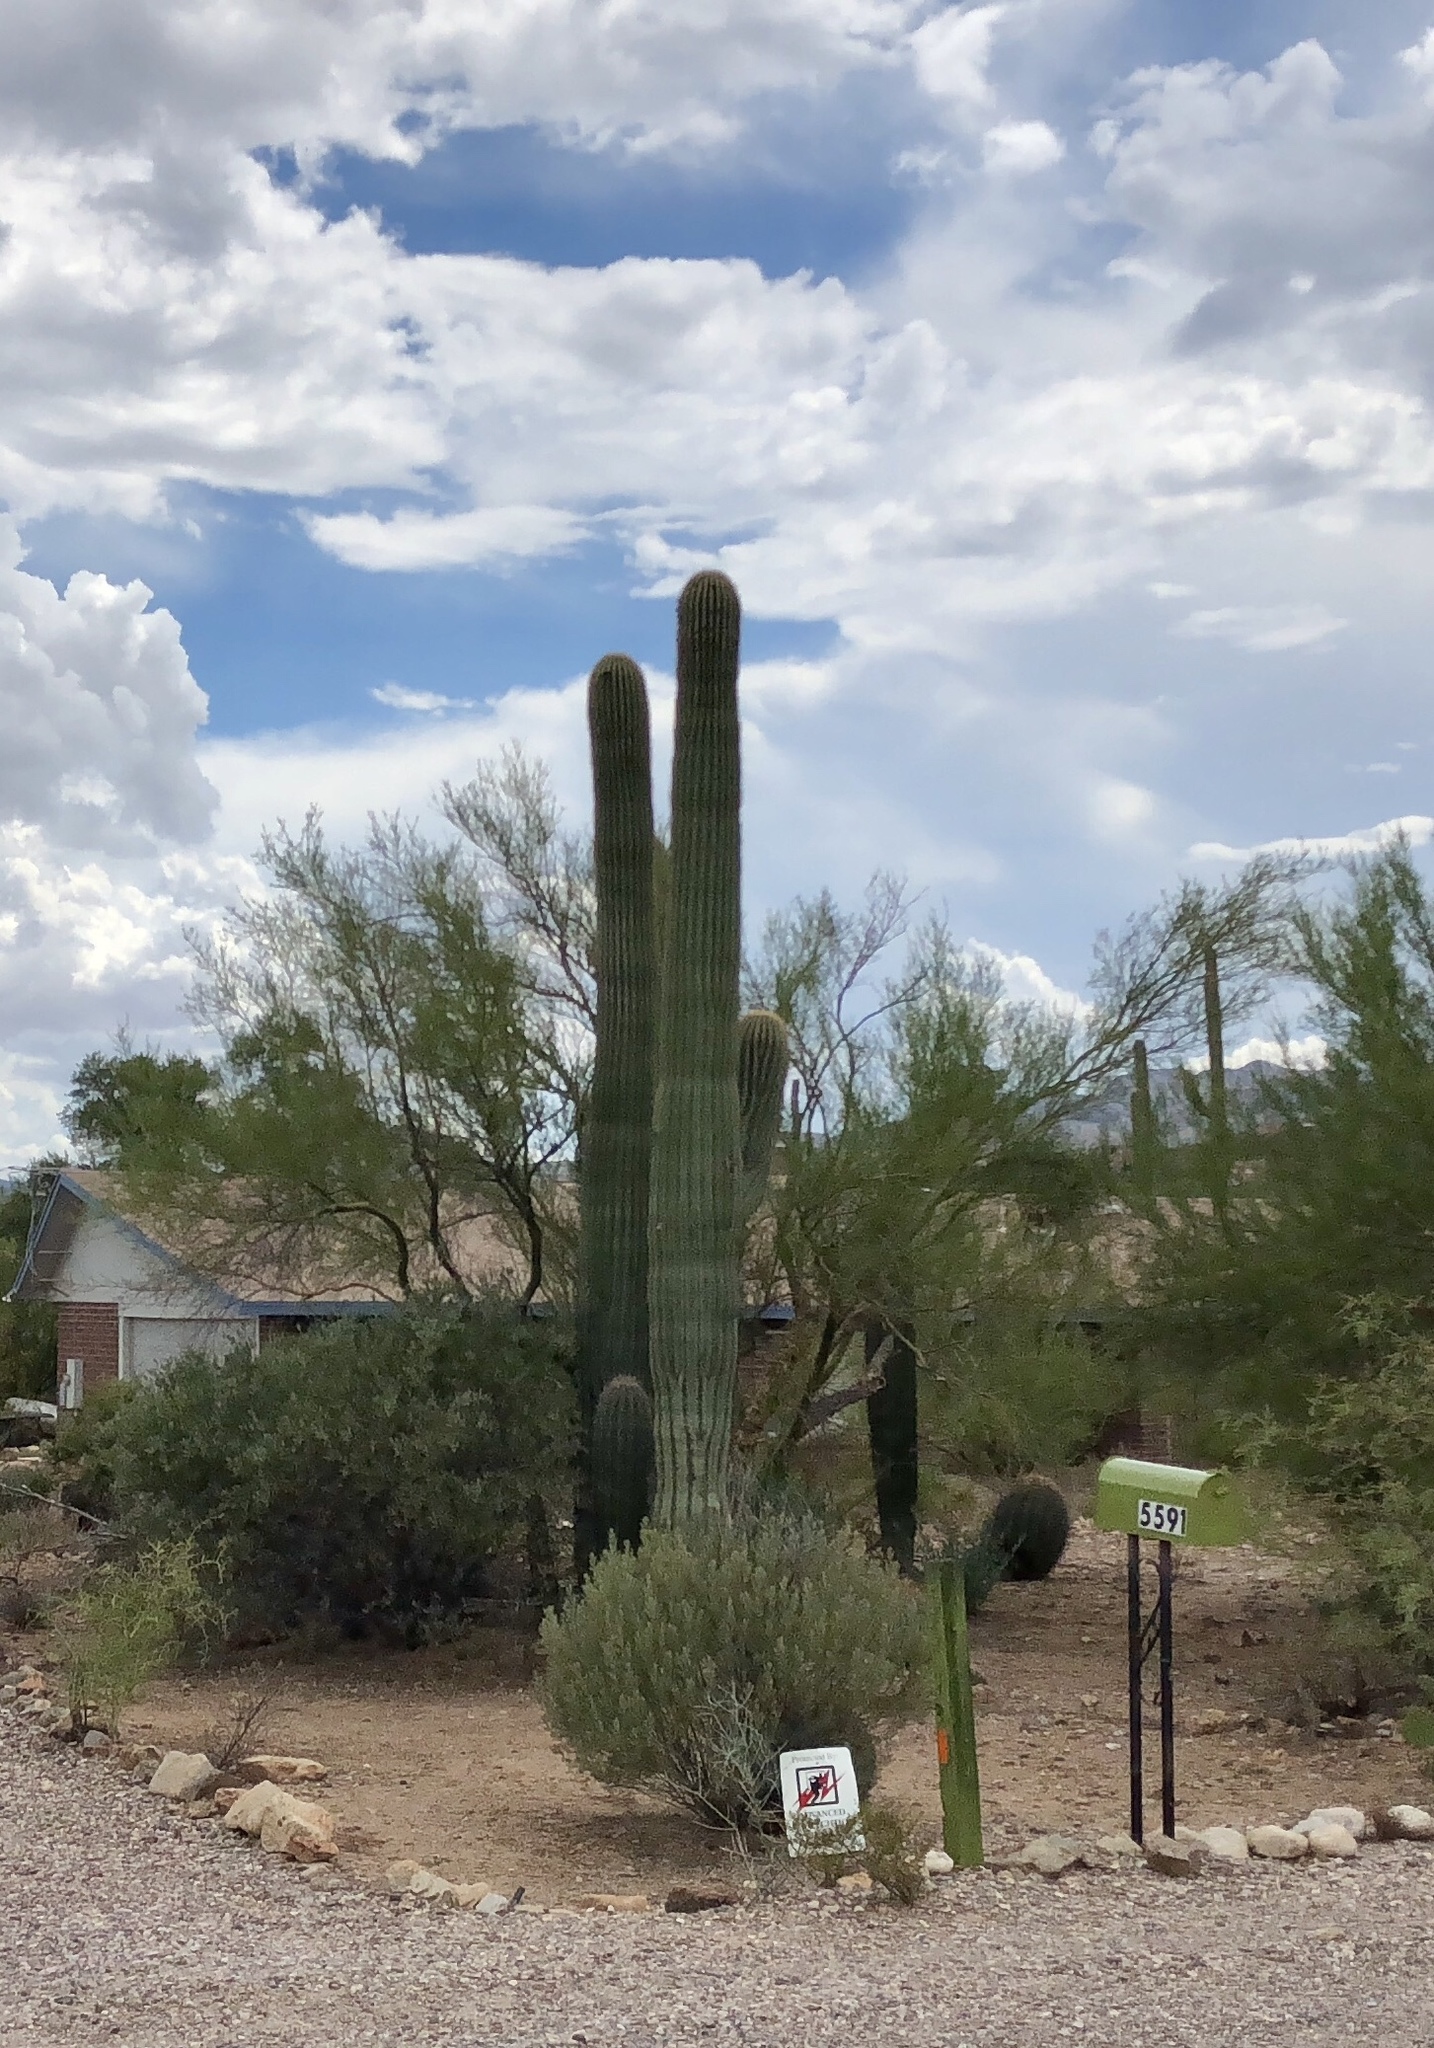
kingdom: Plantae
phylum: Tracheophyta
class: Magnoliopsida
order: Caryophyllales
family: Cactaceae
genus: Carnegiea
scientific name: Carnegiea gigantea
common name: Saguaro
